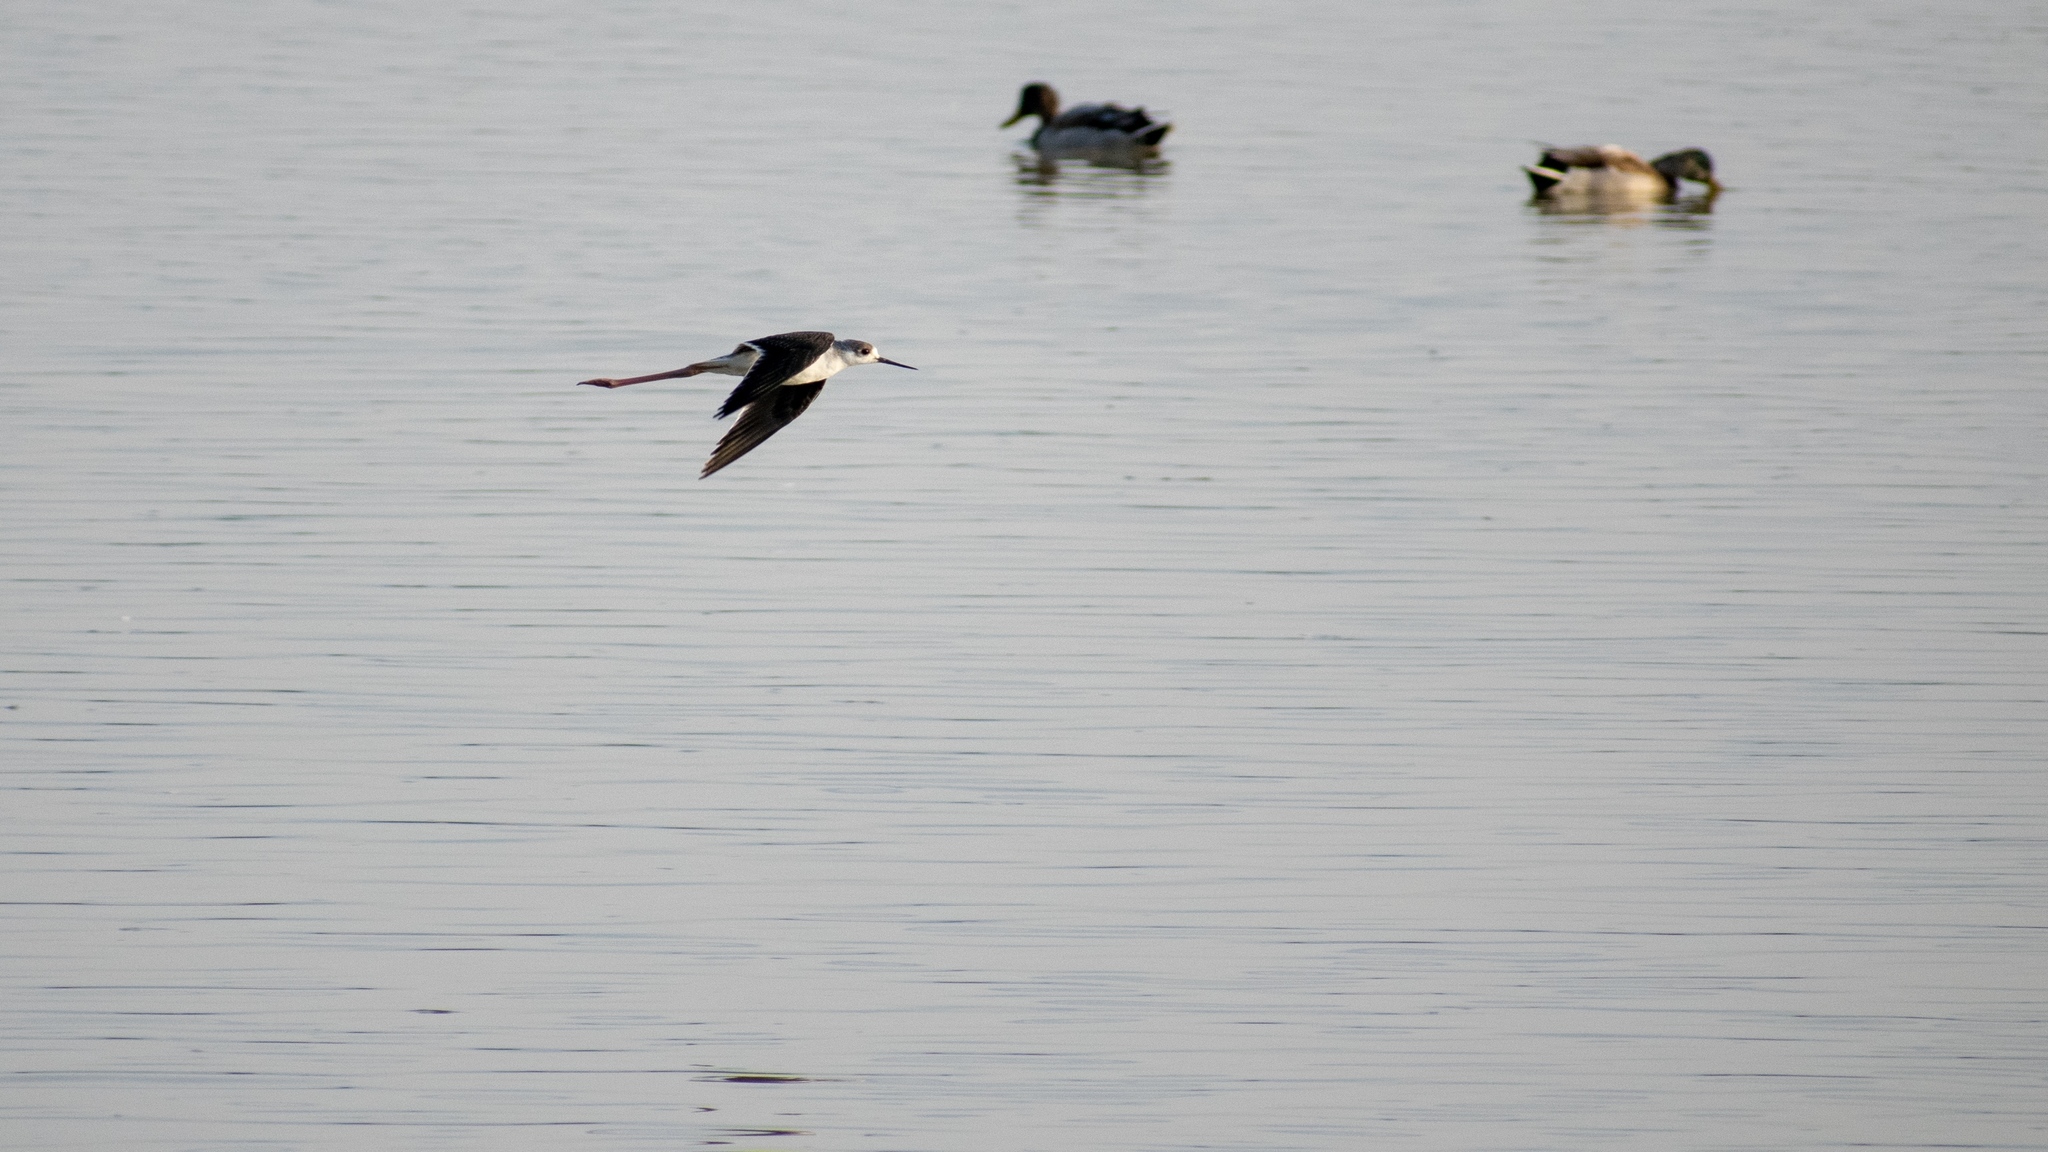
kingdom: Animalia
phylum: Chordata
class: Aves
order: Charadriiformes
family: Recurvirostridae
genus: Himantopus
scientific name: Himantopus himantopus
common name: Black-winged stilt
